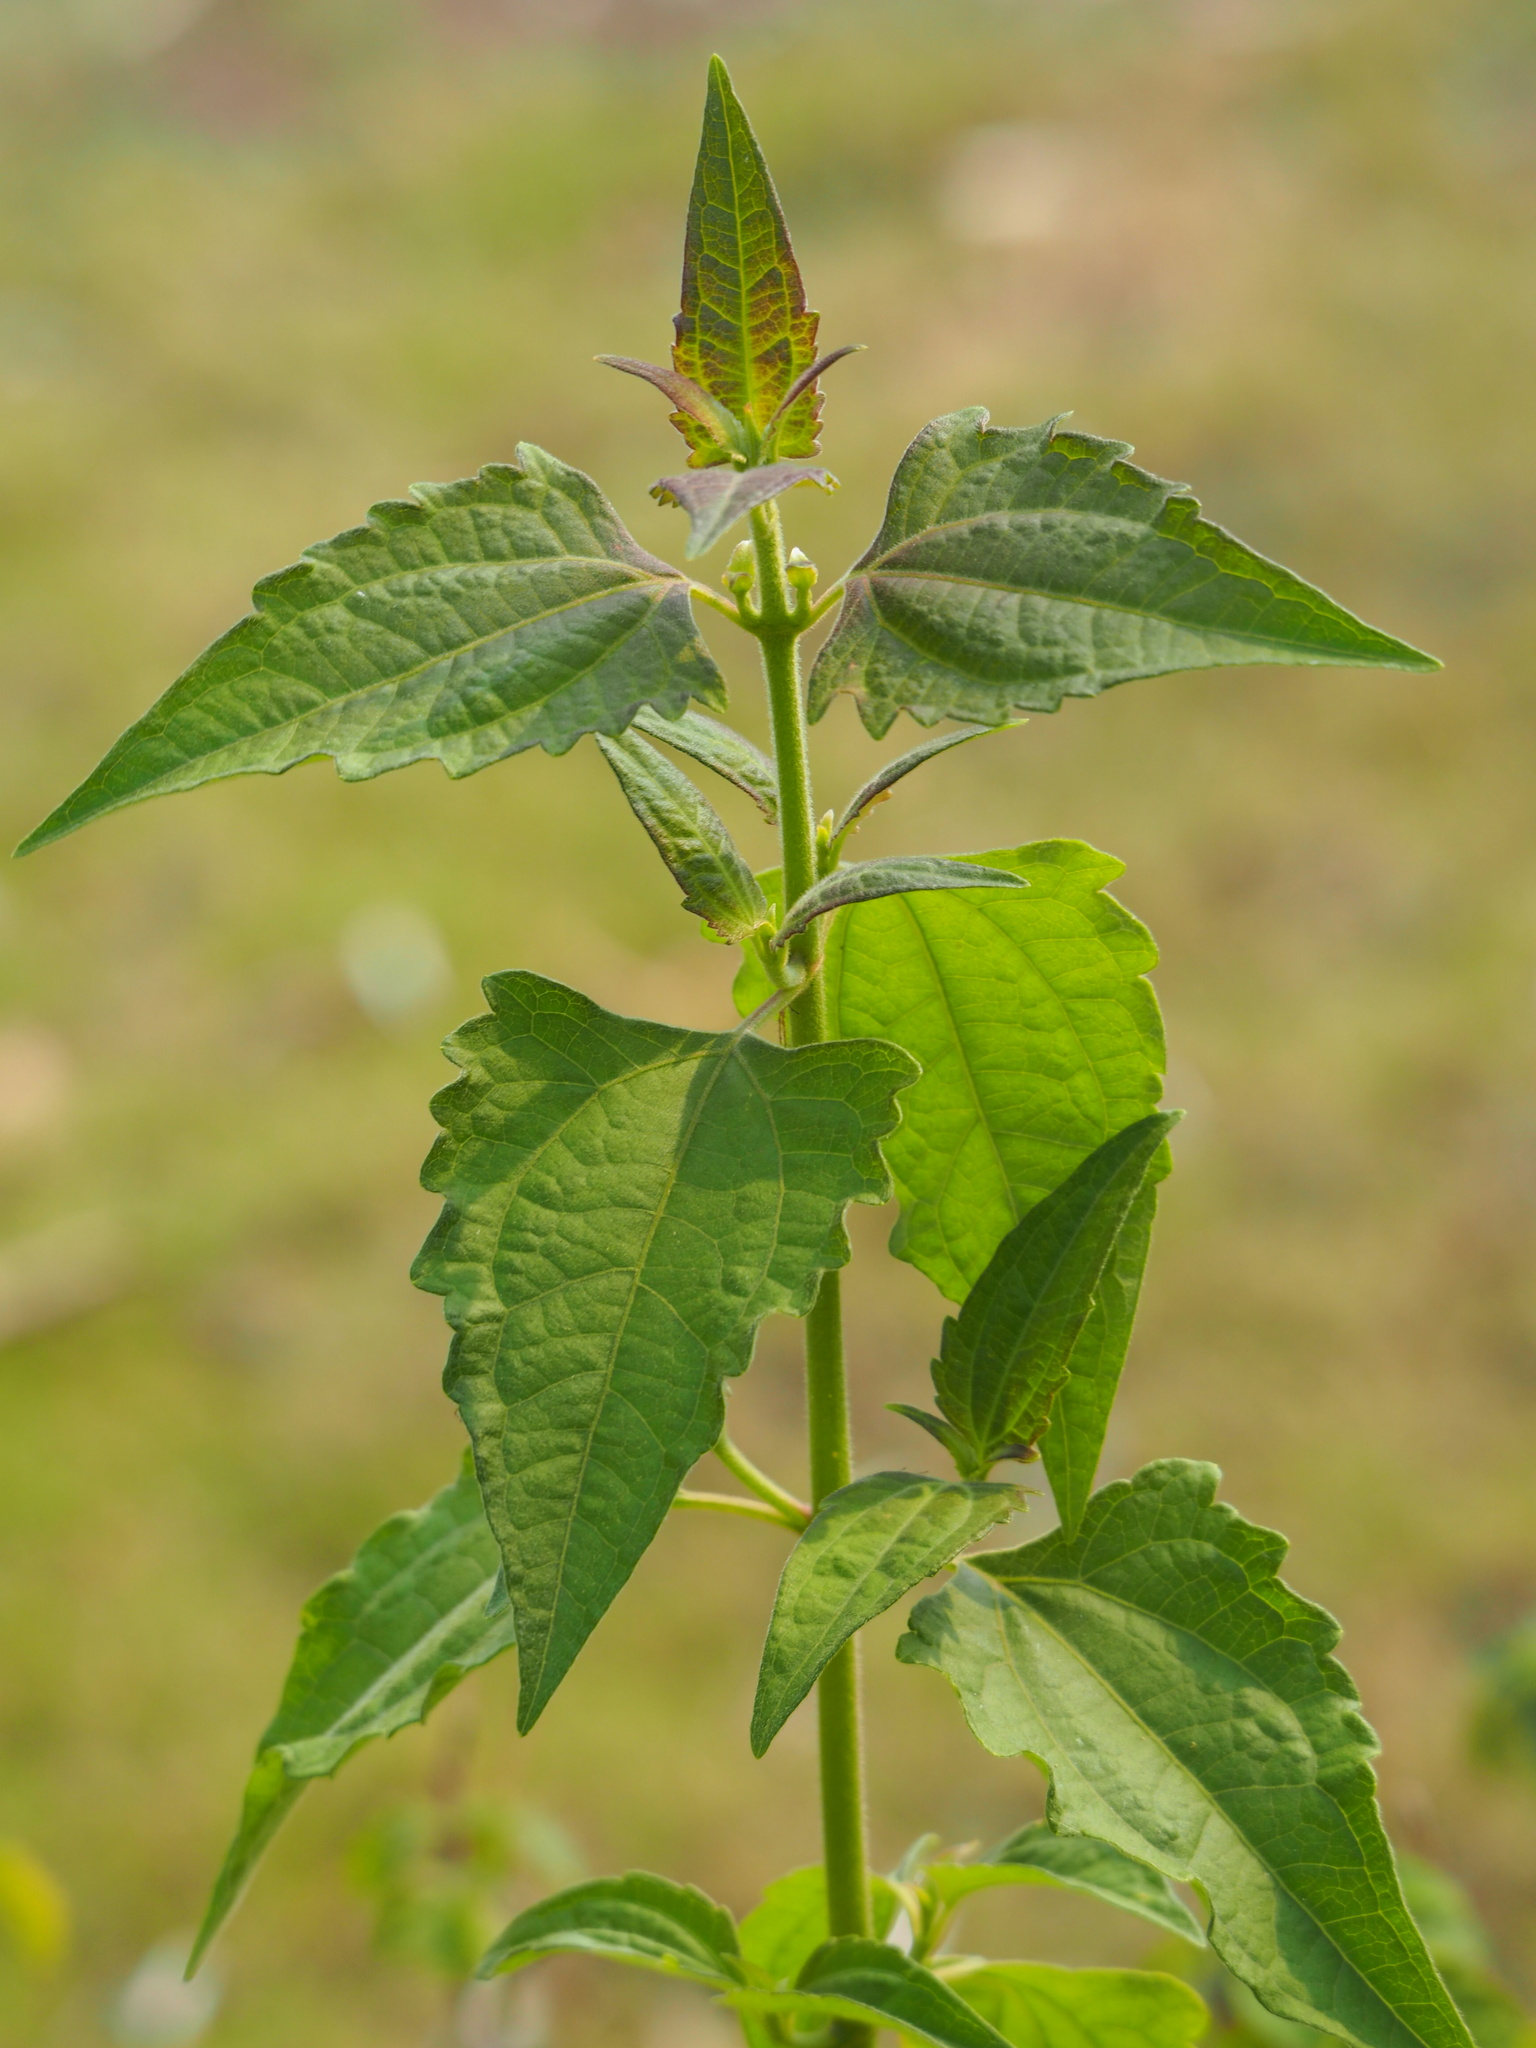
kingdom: Plantae
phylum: Tracheophyta
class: Magnoliopsida
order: Asterales
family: Asteraceae
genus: Chromolaena
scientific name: Chromolaena odorata
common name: Siamweed
